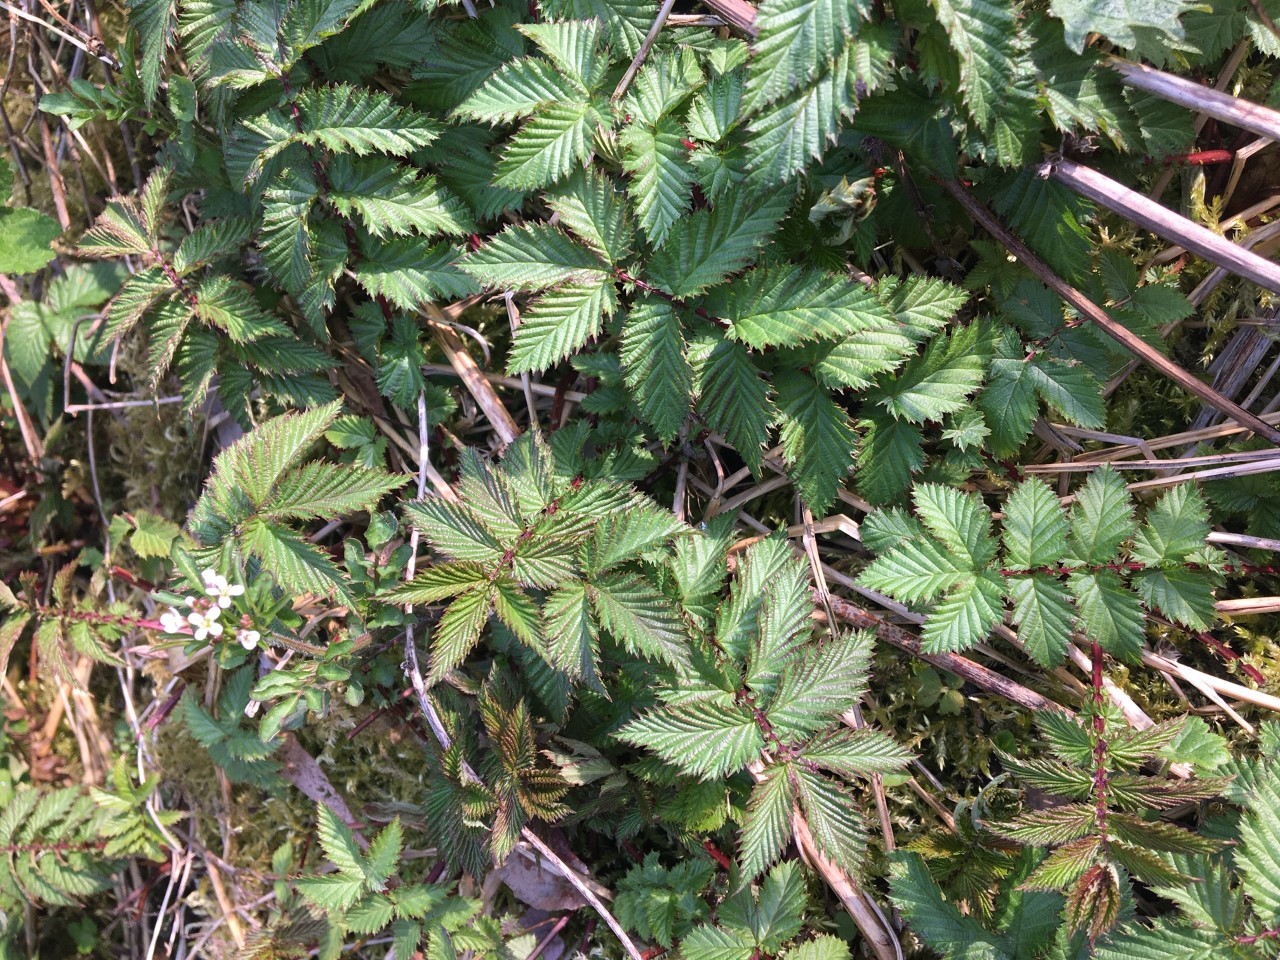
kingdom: Plantae
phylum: Tracheophyta
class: Magnoliopsida
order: Rosales
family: Rosaceae
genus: Filipendula
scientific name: Filipendula ulmaria
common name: Meadowsweet
